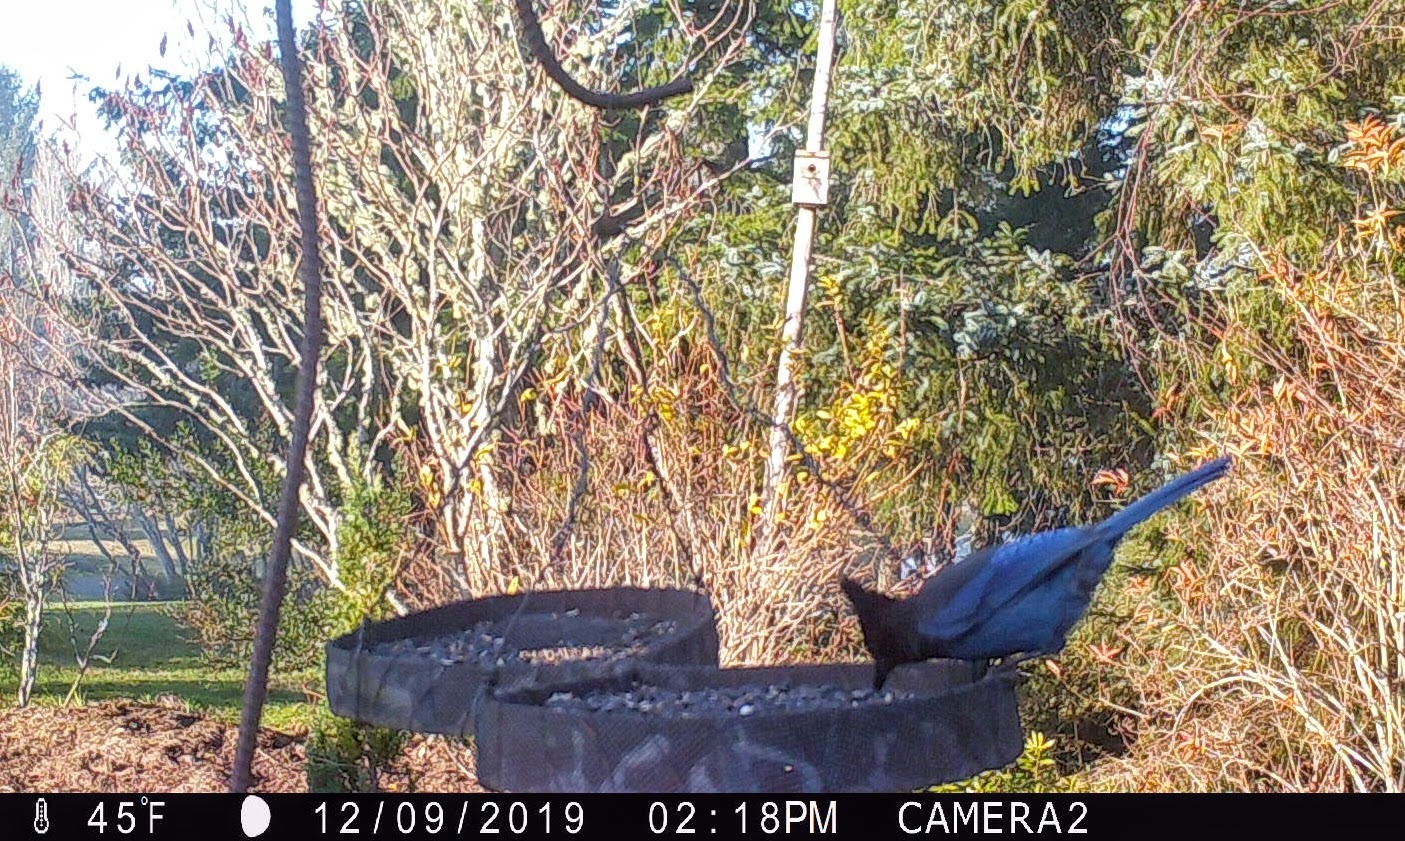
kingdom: Animalia
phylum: Chordata
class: Aves
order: Passeriformes
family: Corvidae
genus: Cyanocitta
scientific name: Cyanocitta stelleri
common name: Steller's jay
